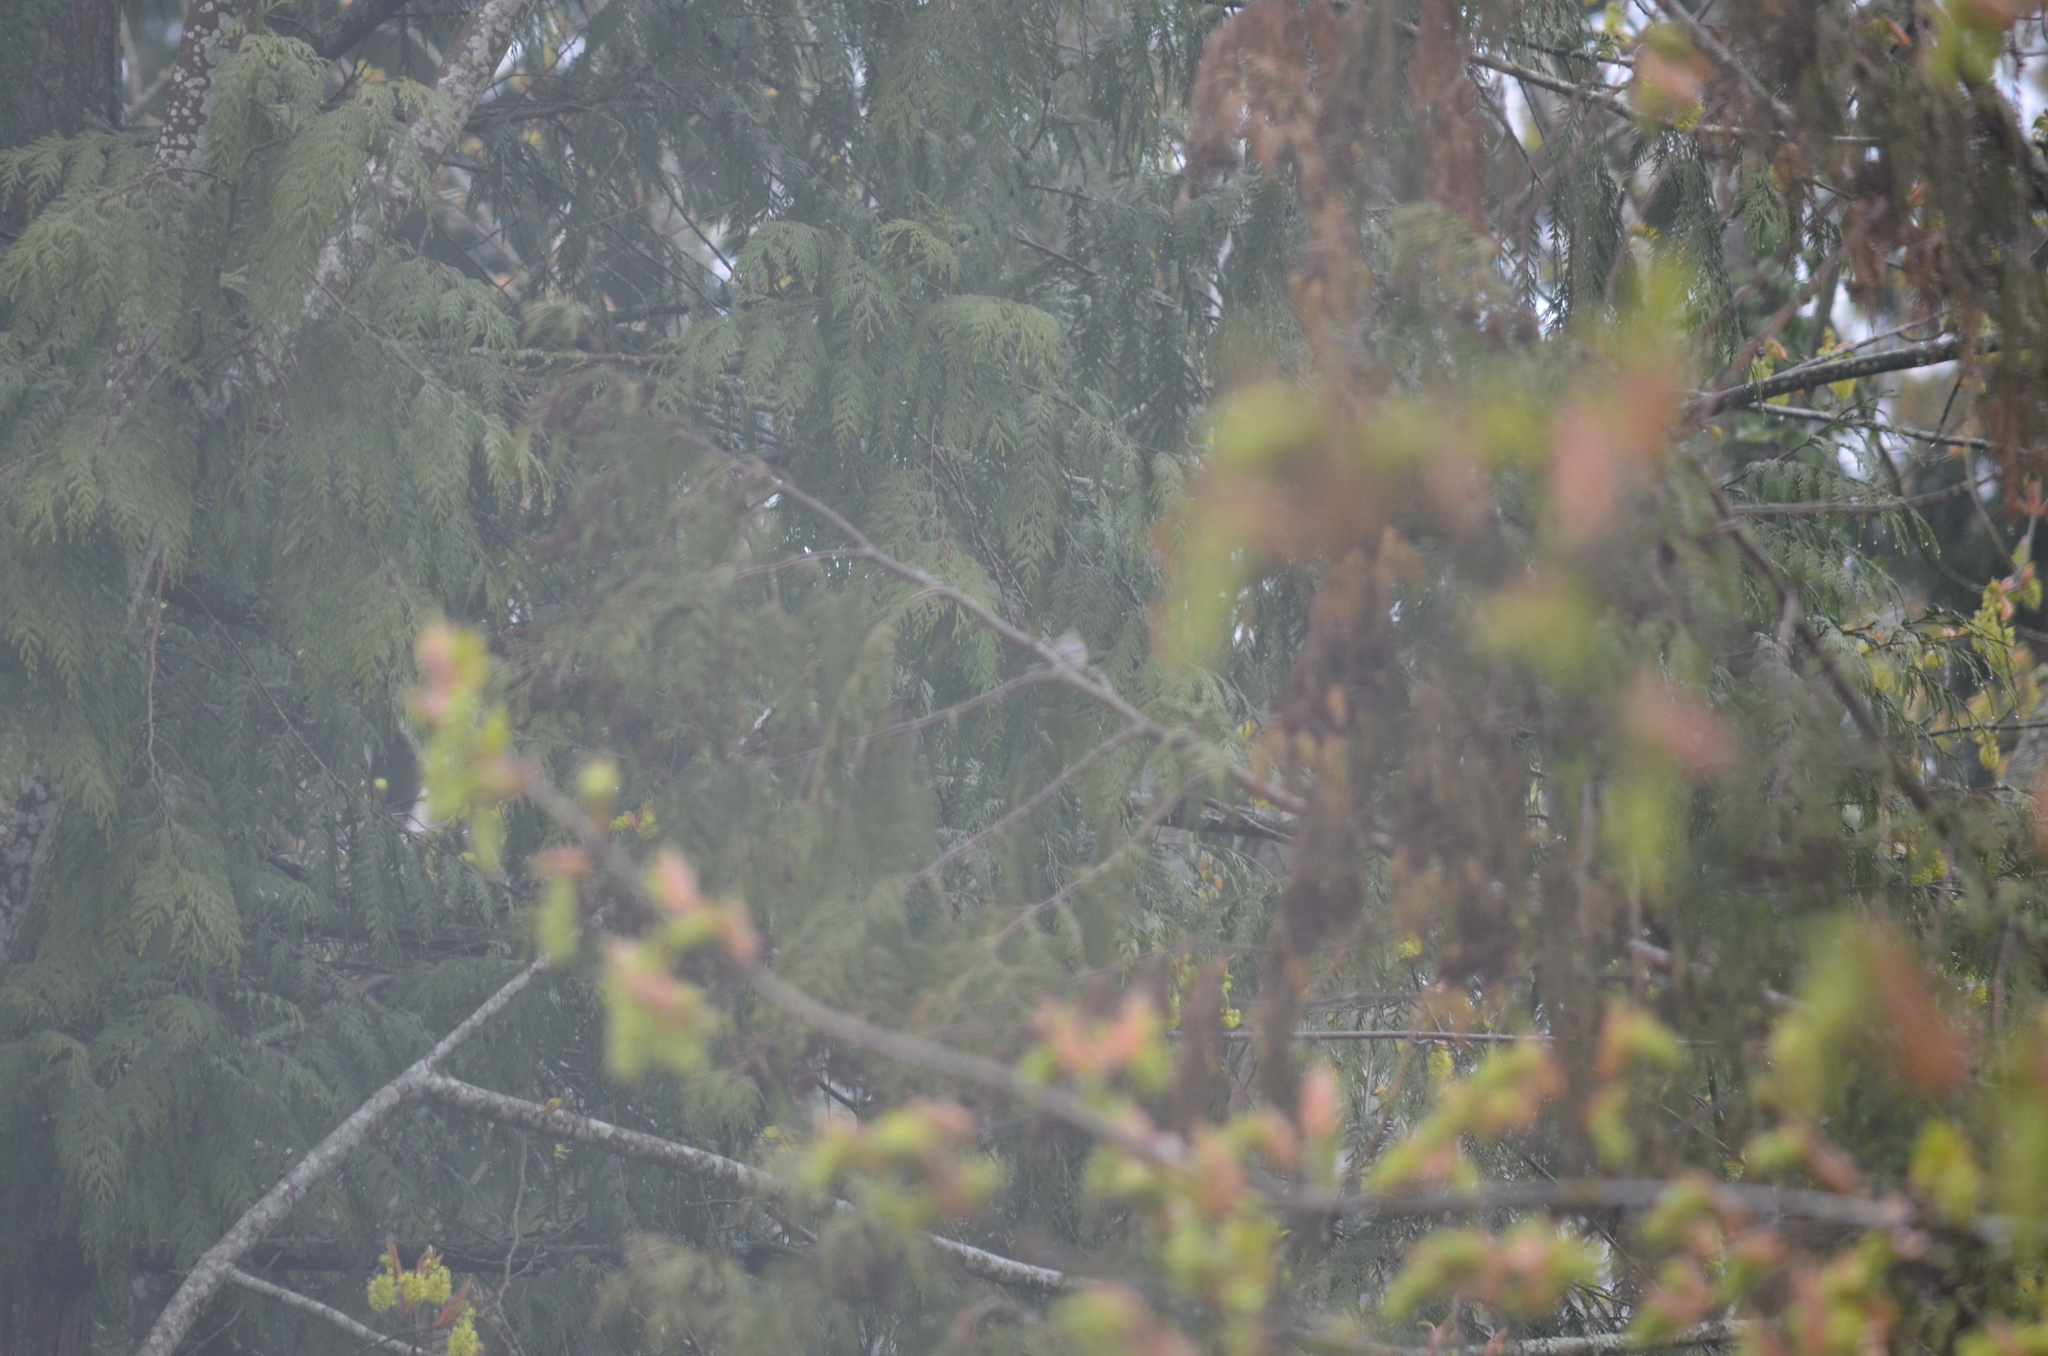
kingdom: Animalia
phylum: Chordata
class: Aves
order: Passeriformes
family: Parulidae
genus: Setophaga
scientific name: Setophaga coronata
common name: Myrtle warbler
